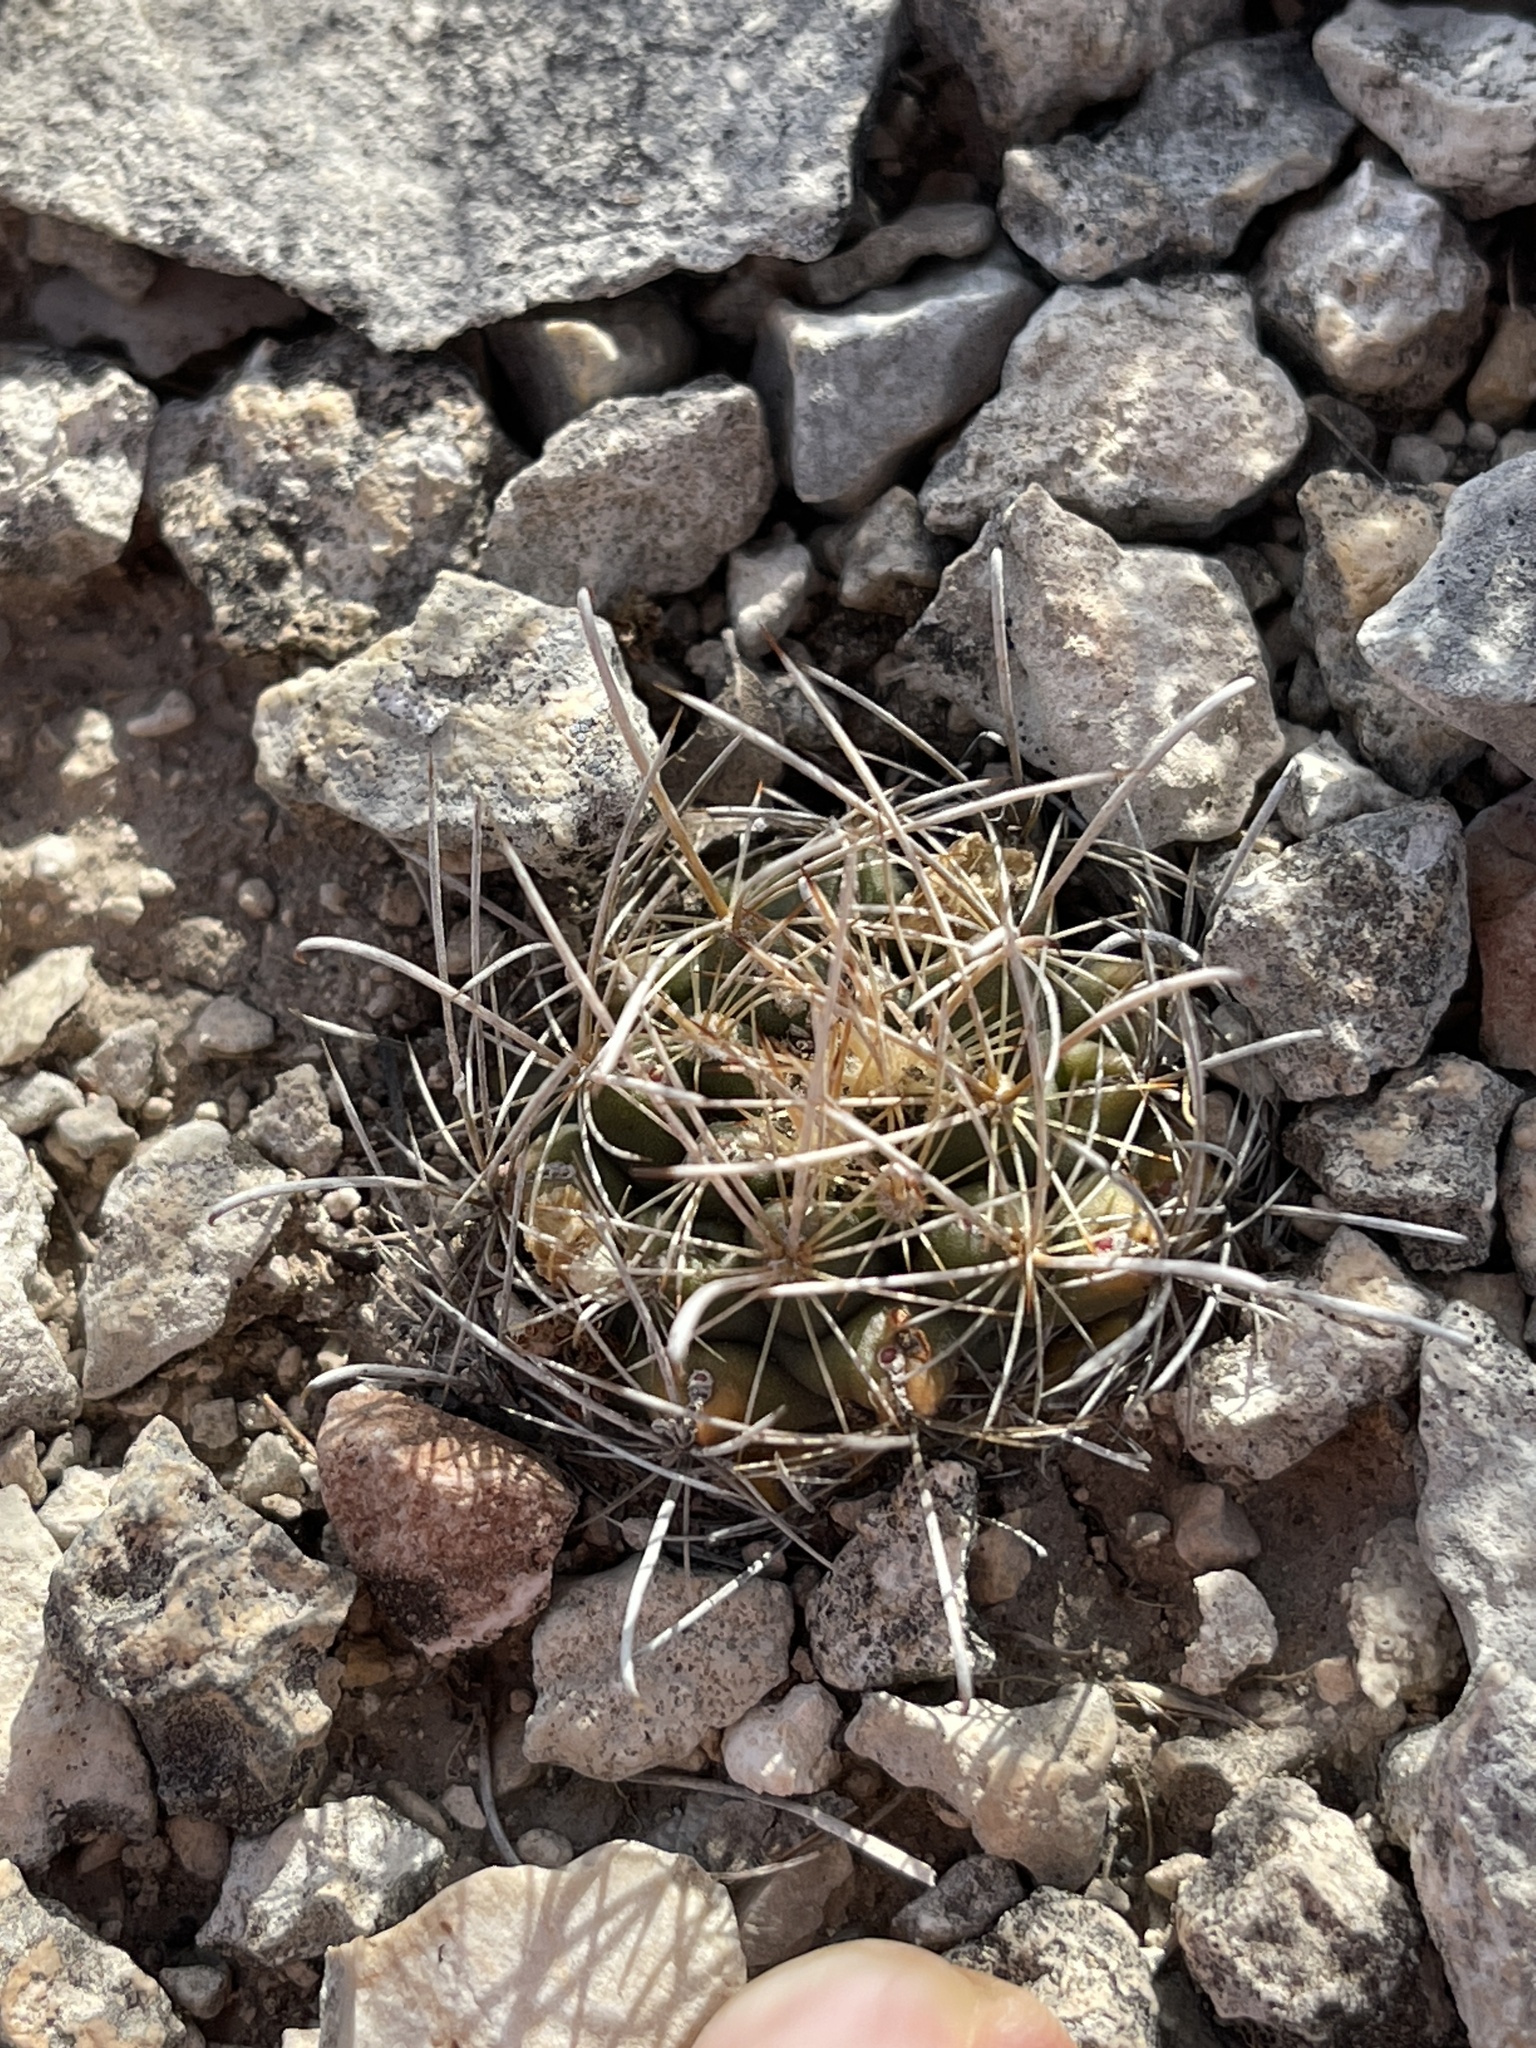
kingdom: Plantae
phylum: Tracheophyta
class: Magnoliopsida
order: Caryophyllales
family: Cactaceae
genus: Sclerocactus
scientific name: Sclerocactus brevihamatus
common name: Engelmann's fishhook cactus
